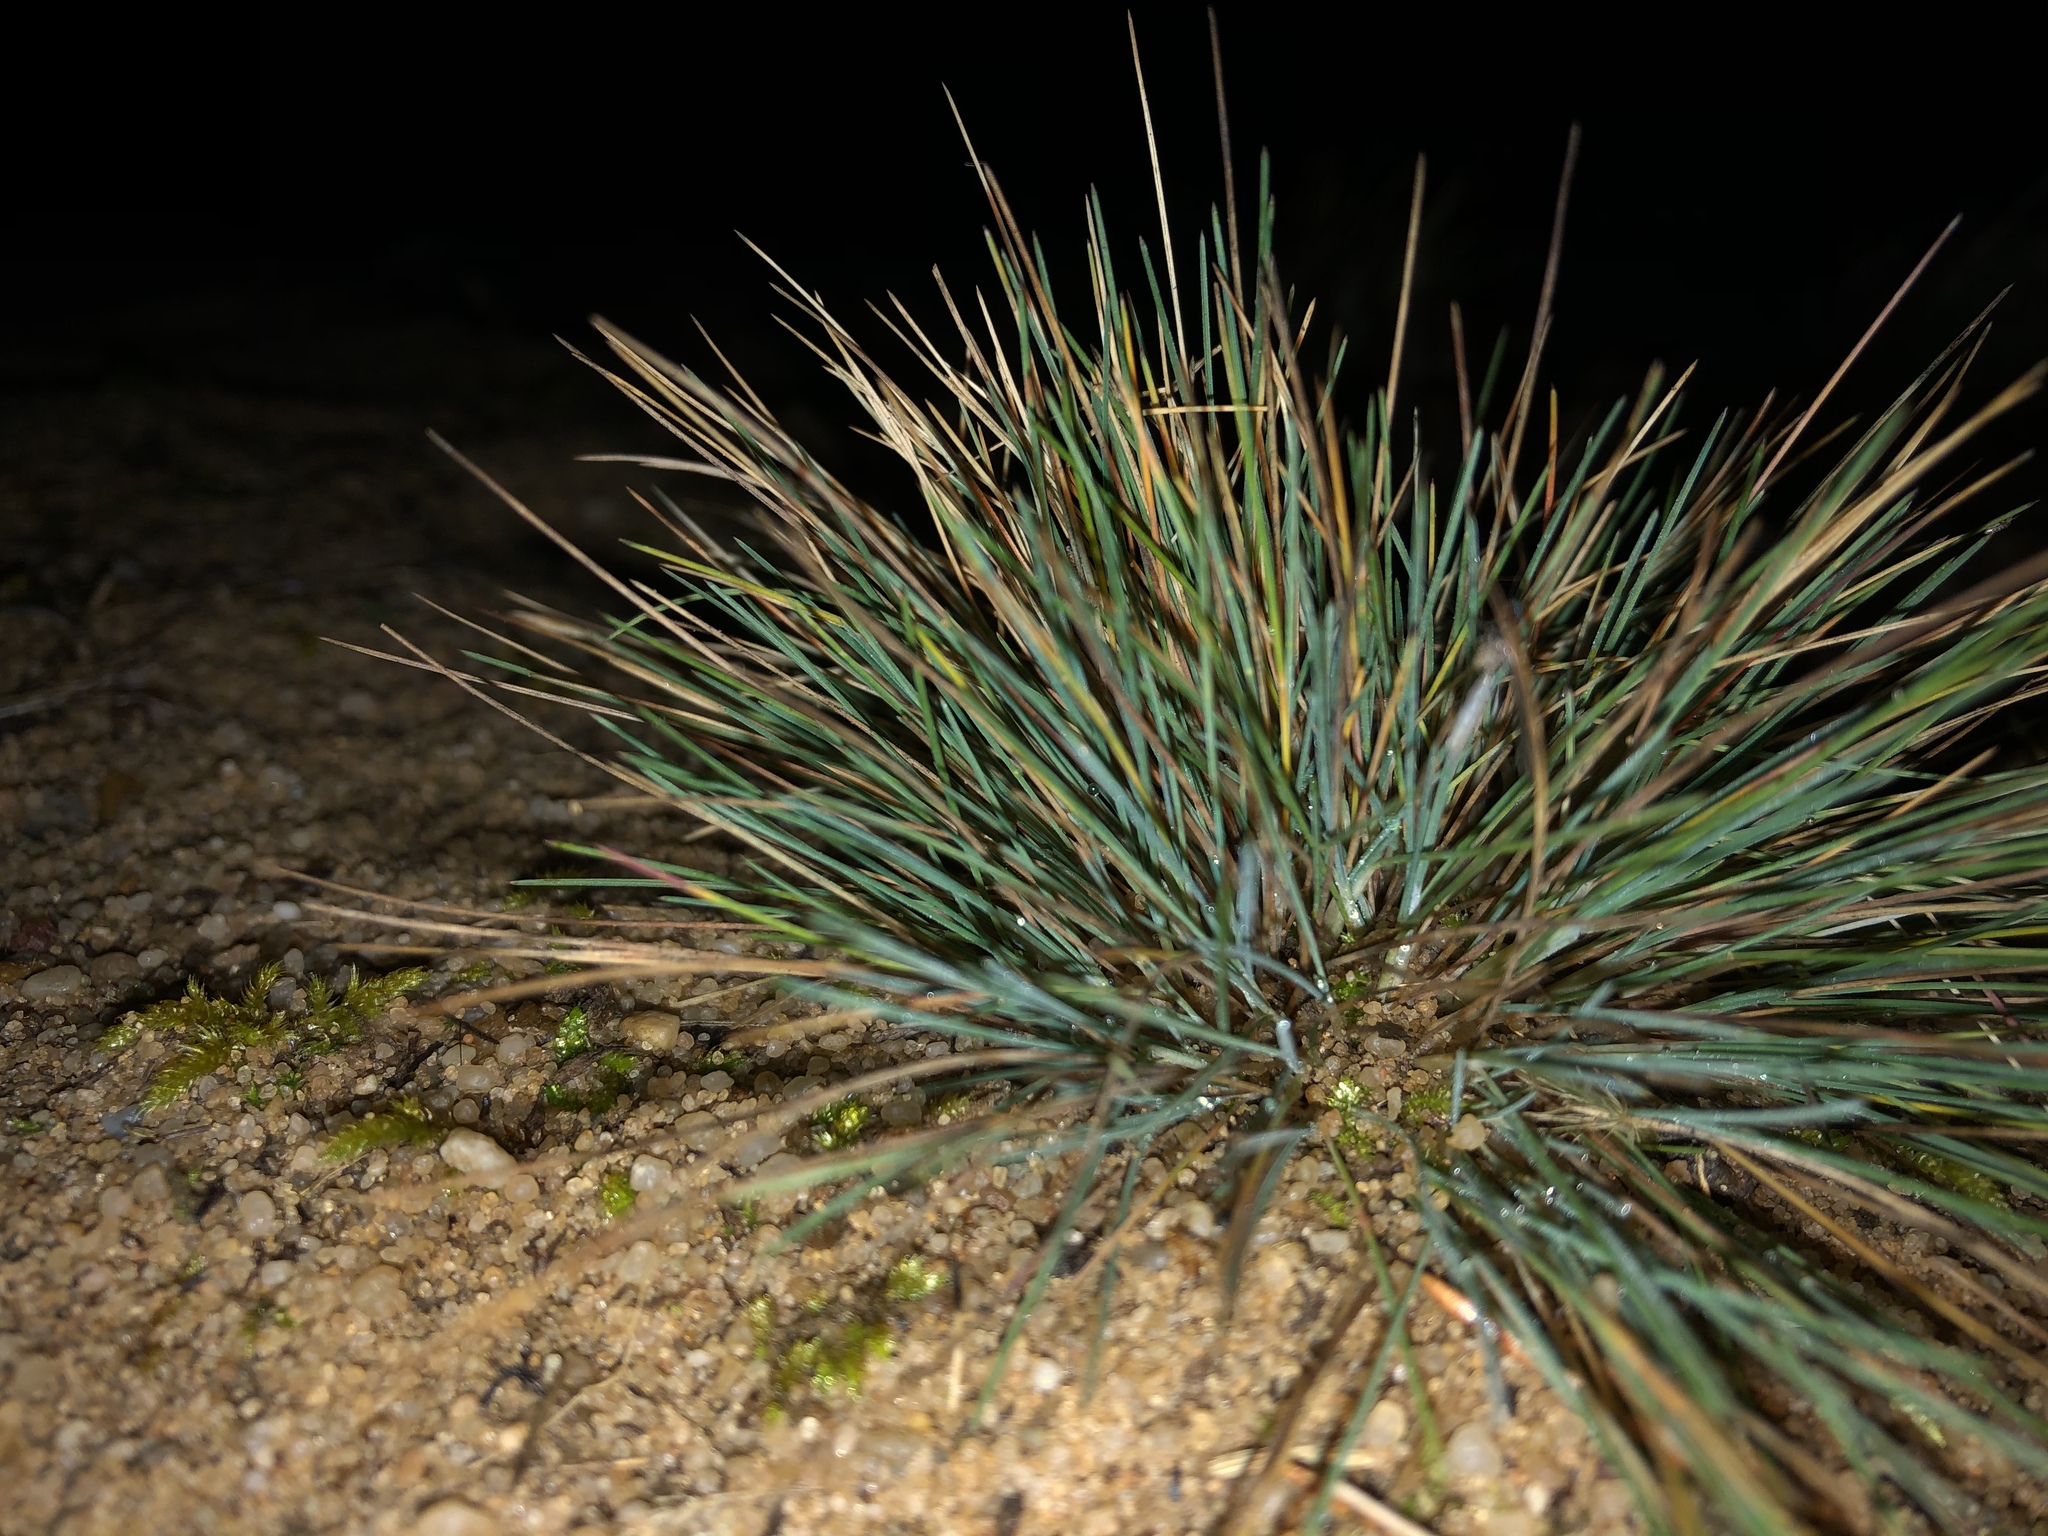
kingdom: Plantae
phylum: Tracheophyta
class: Liliopsida
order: Poales
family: Poaceae
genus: Corynephorus
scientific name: Corynephorus canescens
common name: Grey hair-grass
